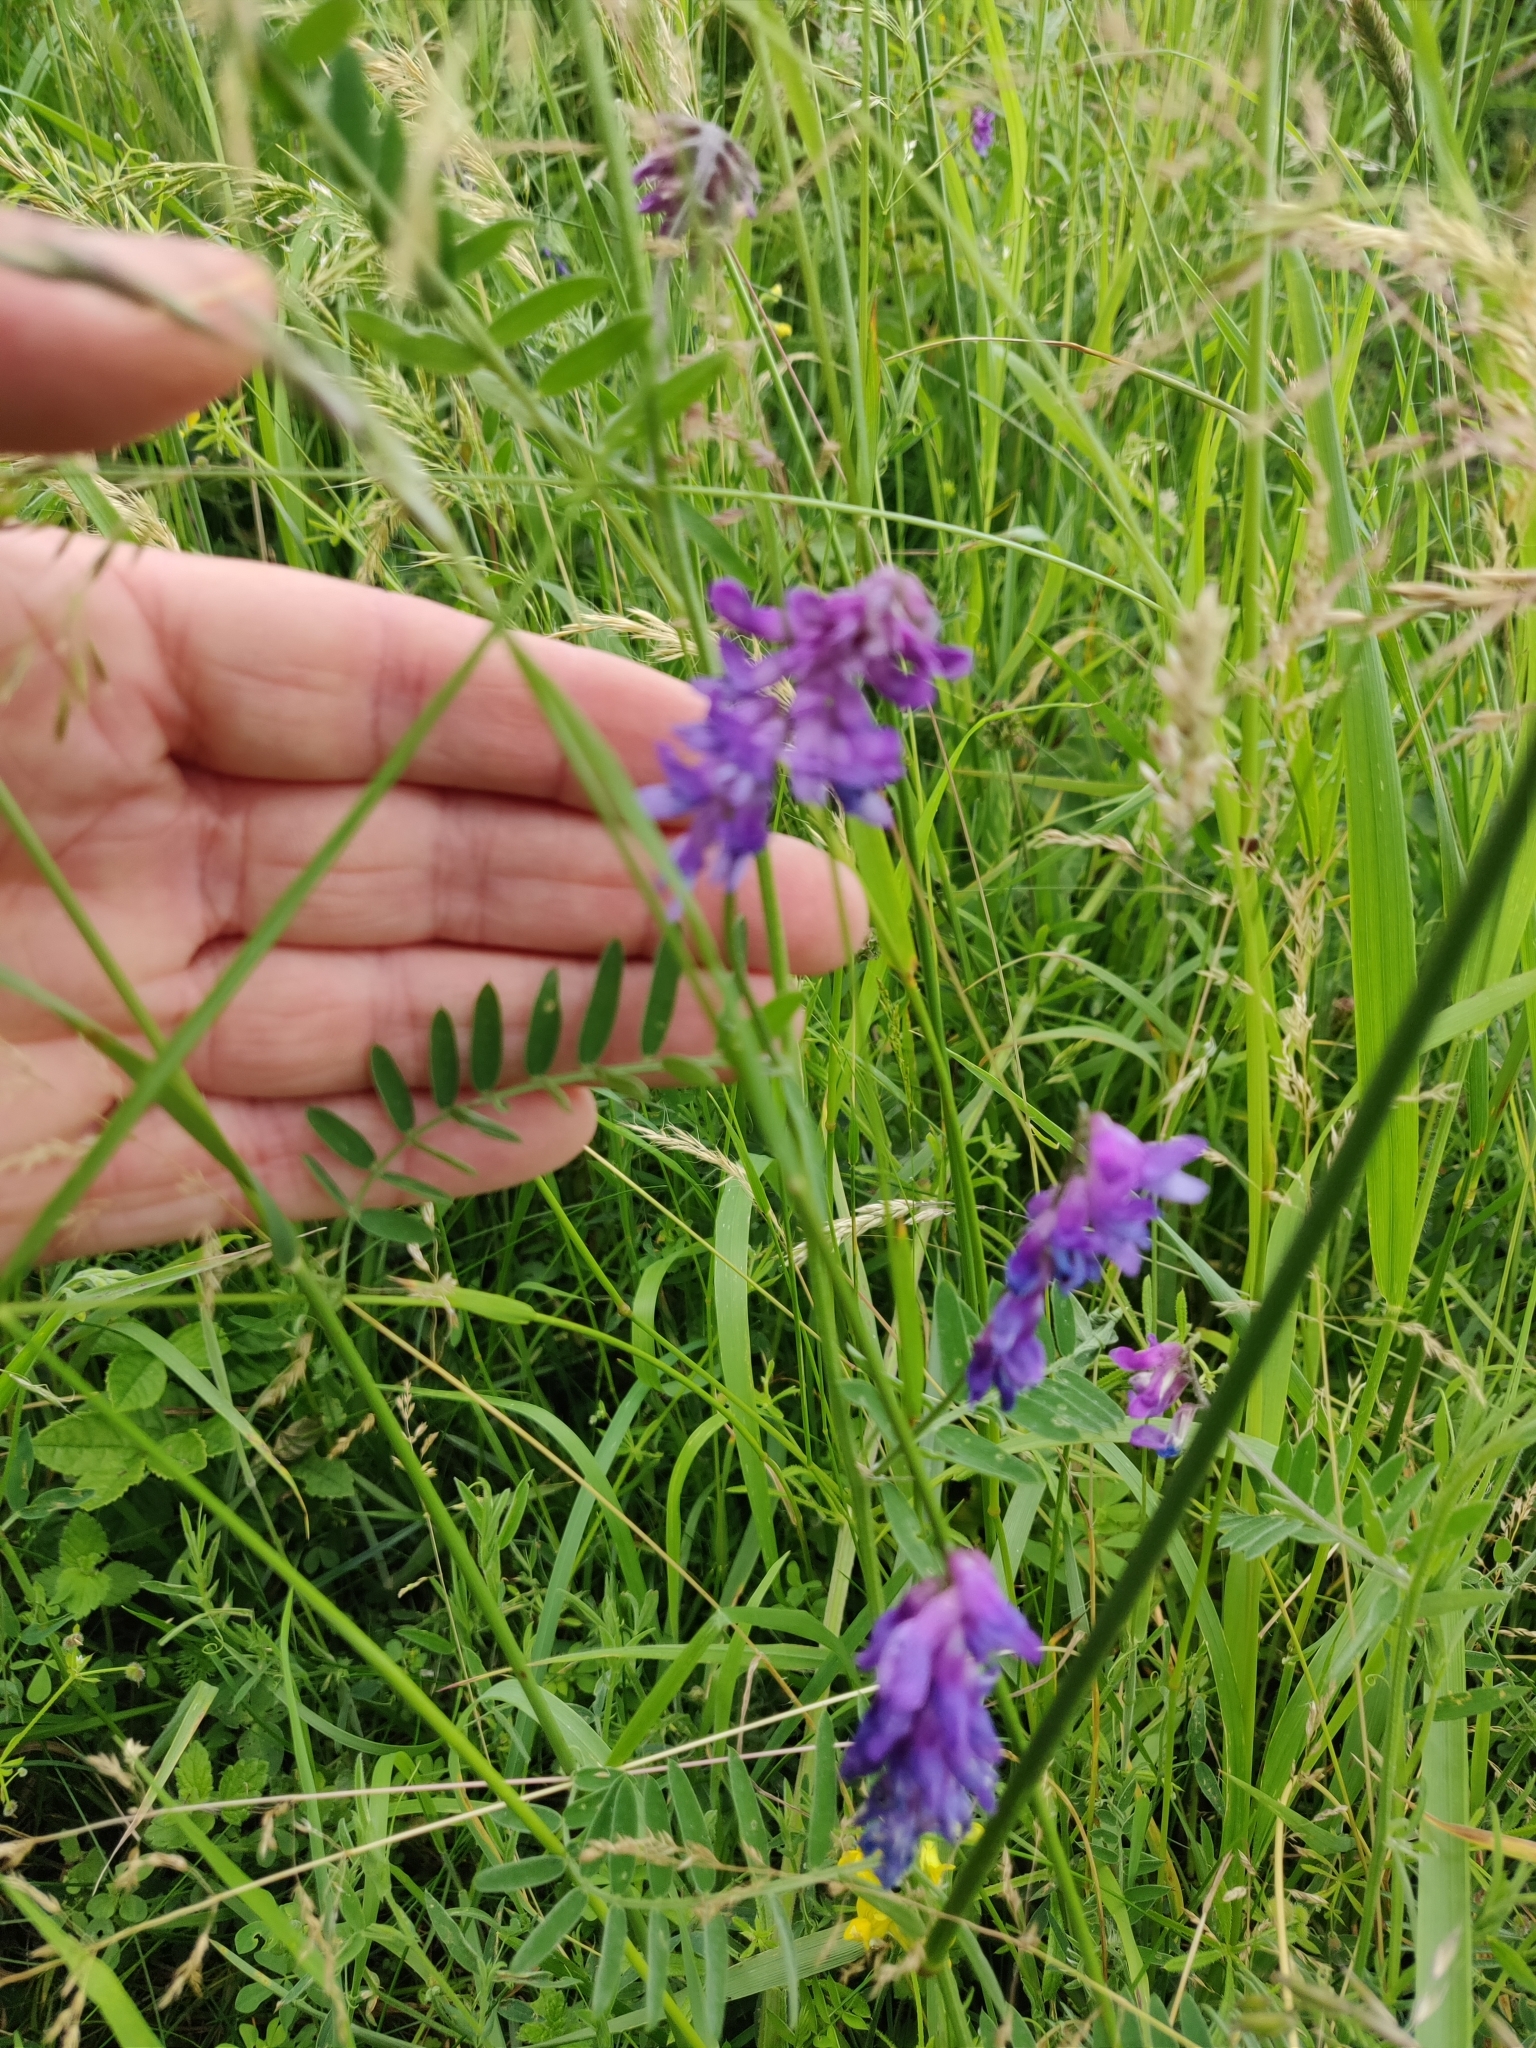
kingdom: Plantae
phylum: Tracheophyta
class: Magnoliopsida
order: Fabales
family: Fabaceae
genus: Vicia
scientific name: Vicia cracca
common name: Bird vetch
